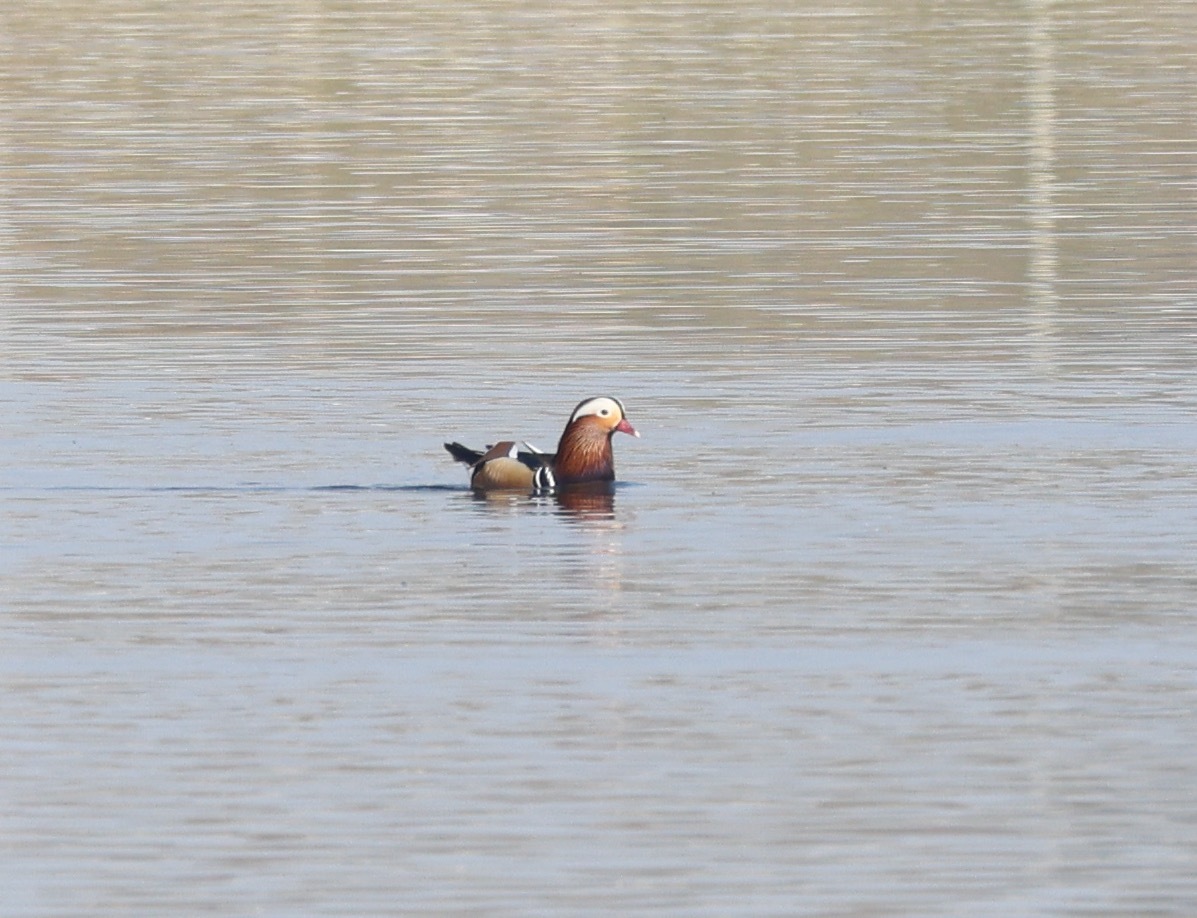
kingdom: Animalia
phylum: Chordata
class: Aves
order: Anseriformes
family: Anatidae
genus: Aix
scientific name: Aix galericulata
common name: Mandarin duck
